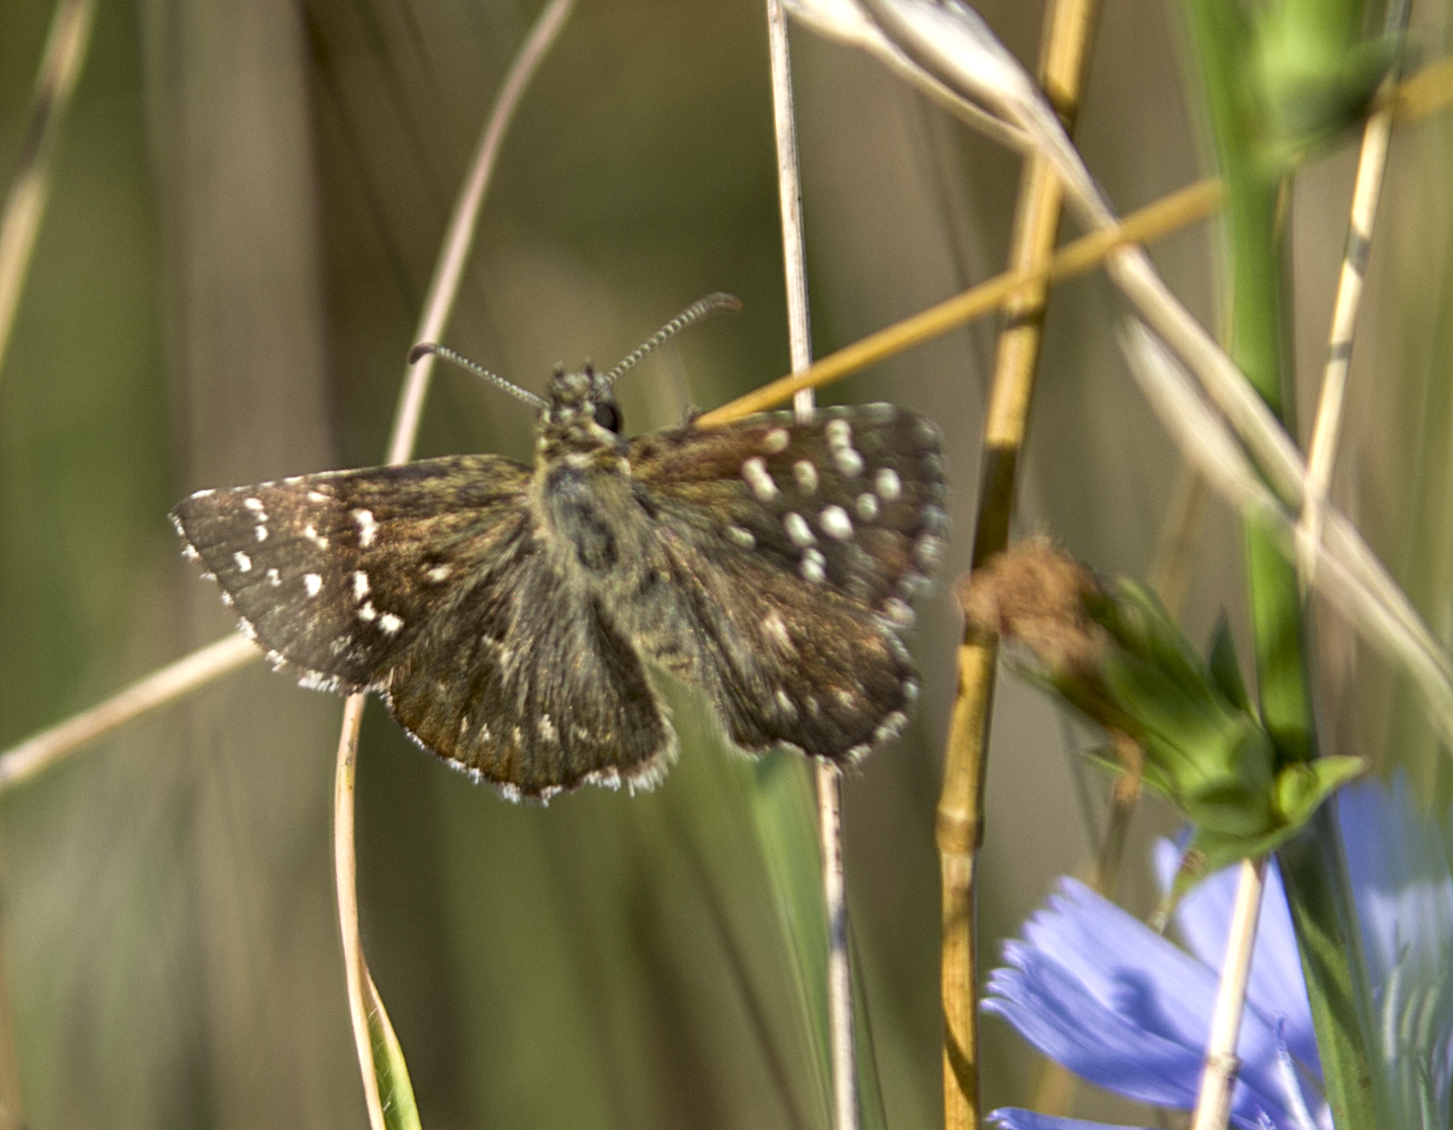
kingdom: Animalia
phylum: Arthropoda
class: Insecta
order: Lepidoptera
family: Hesperiidae
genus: Pyrgus
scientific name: Pyrgus malvae
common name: Grizzled skipper
